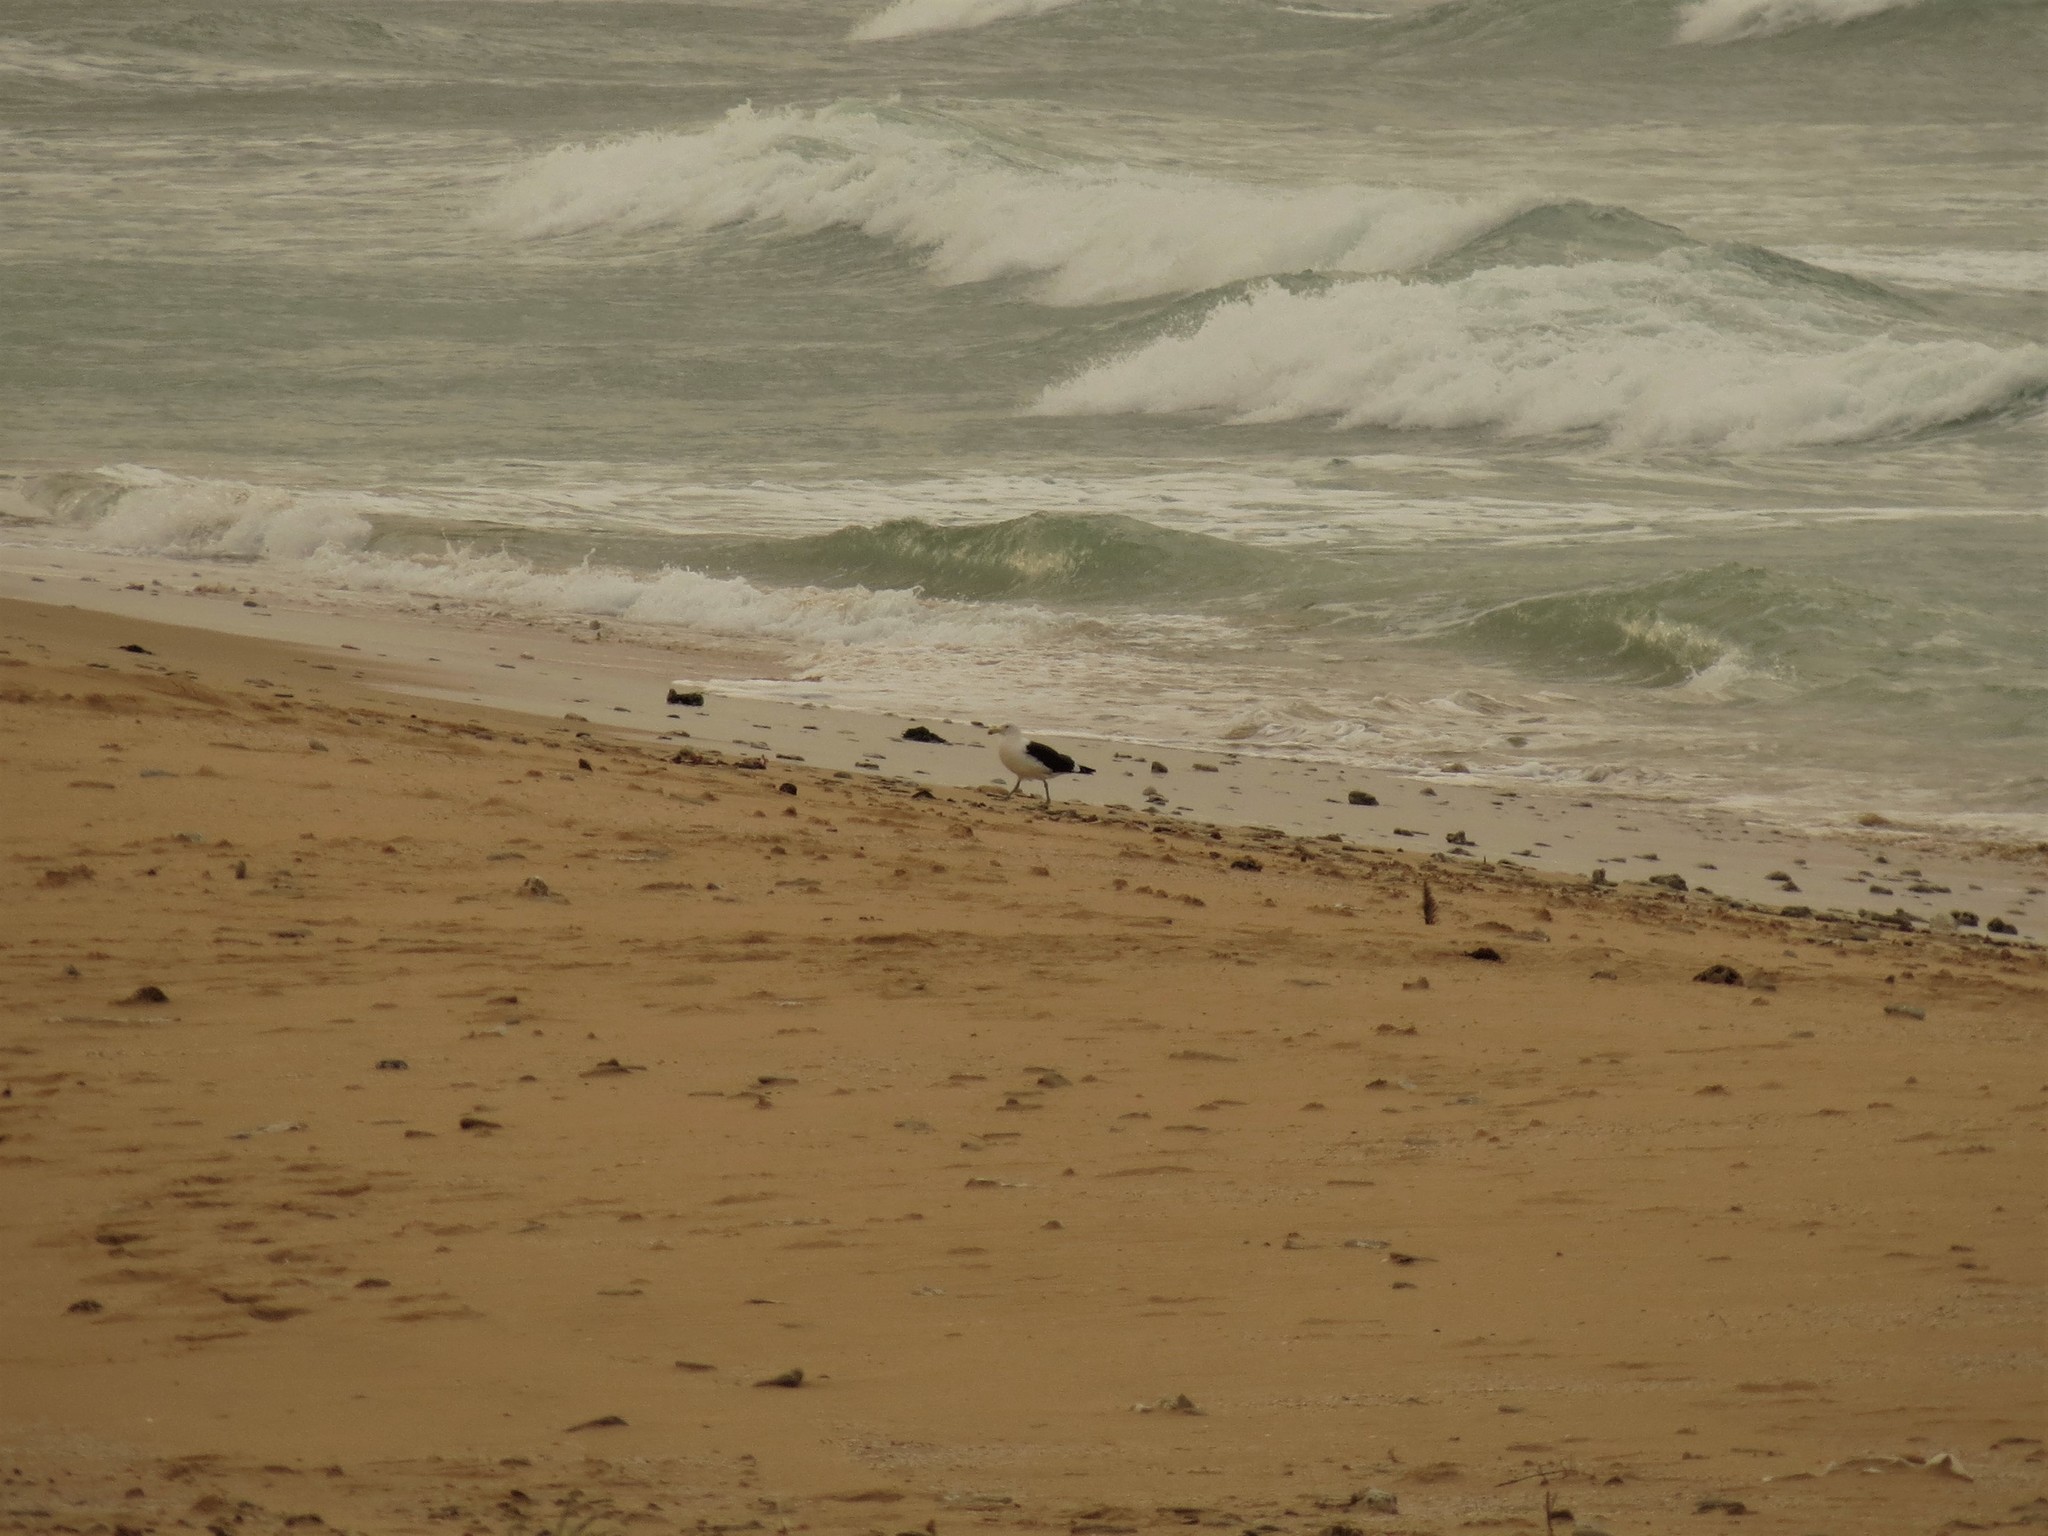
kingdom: Animalia
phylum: Chordata
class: Aves
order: Charadriiformes
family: Laridae
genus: Larus
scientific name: Larus dominicanus
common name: Kelp gull
